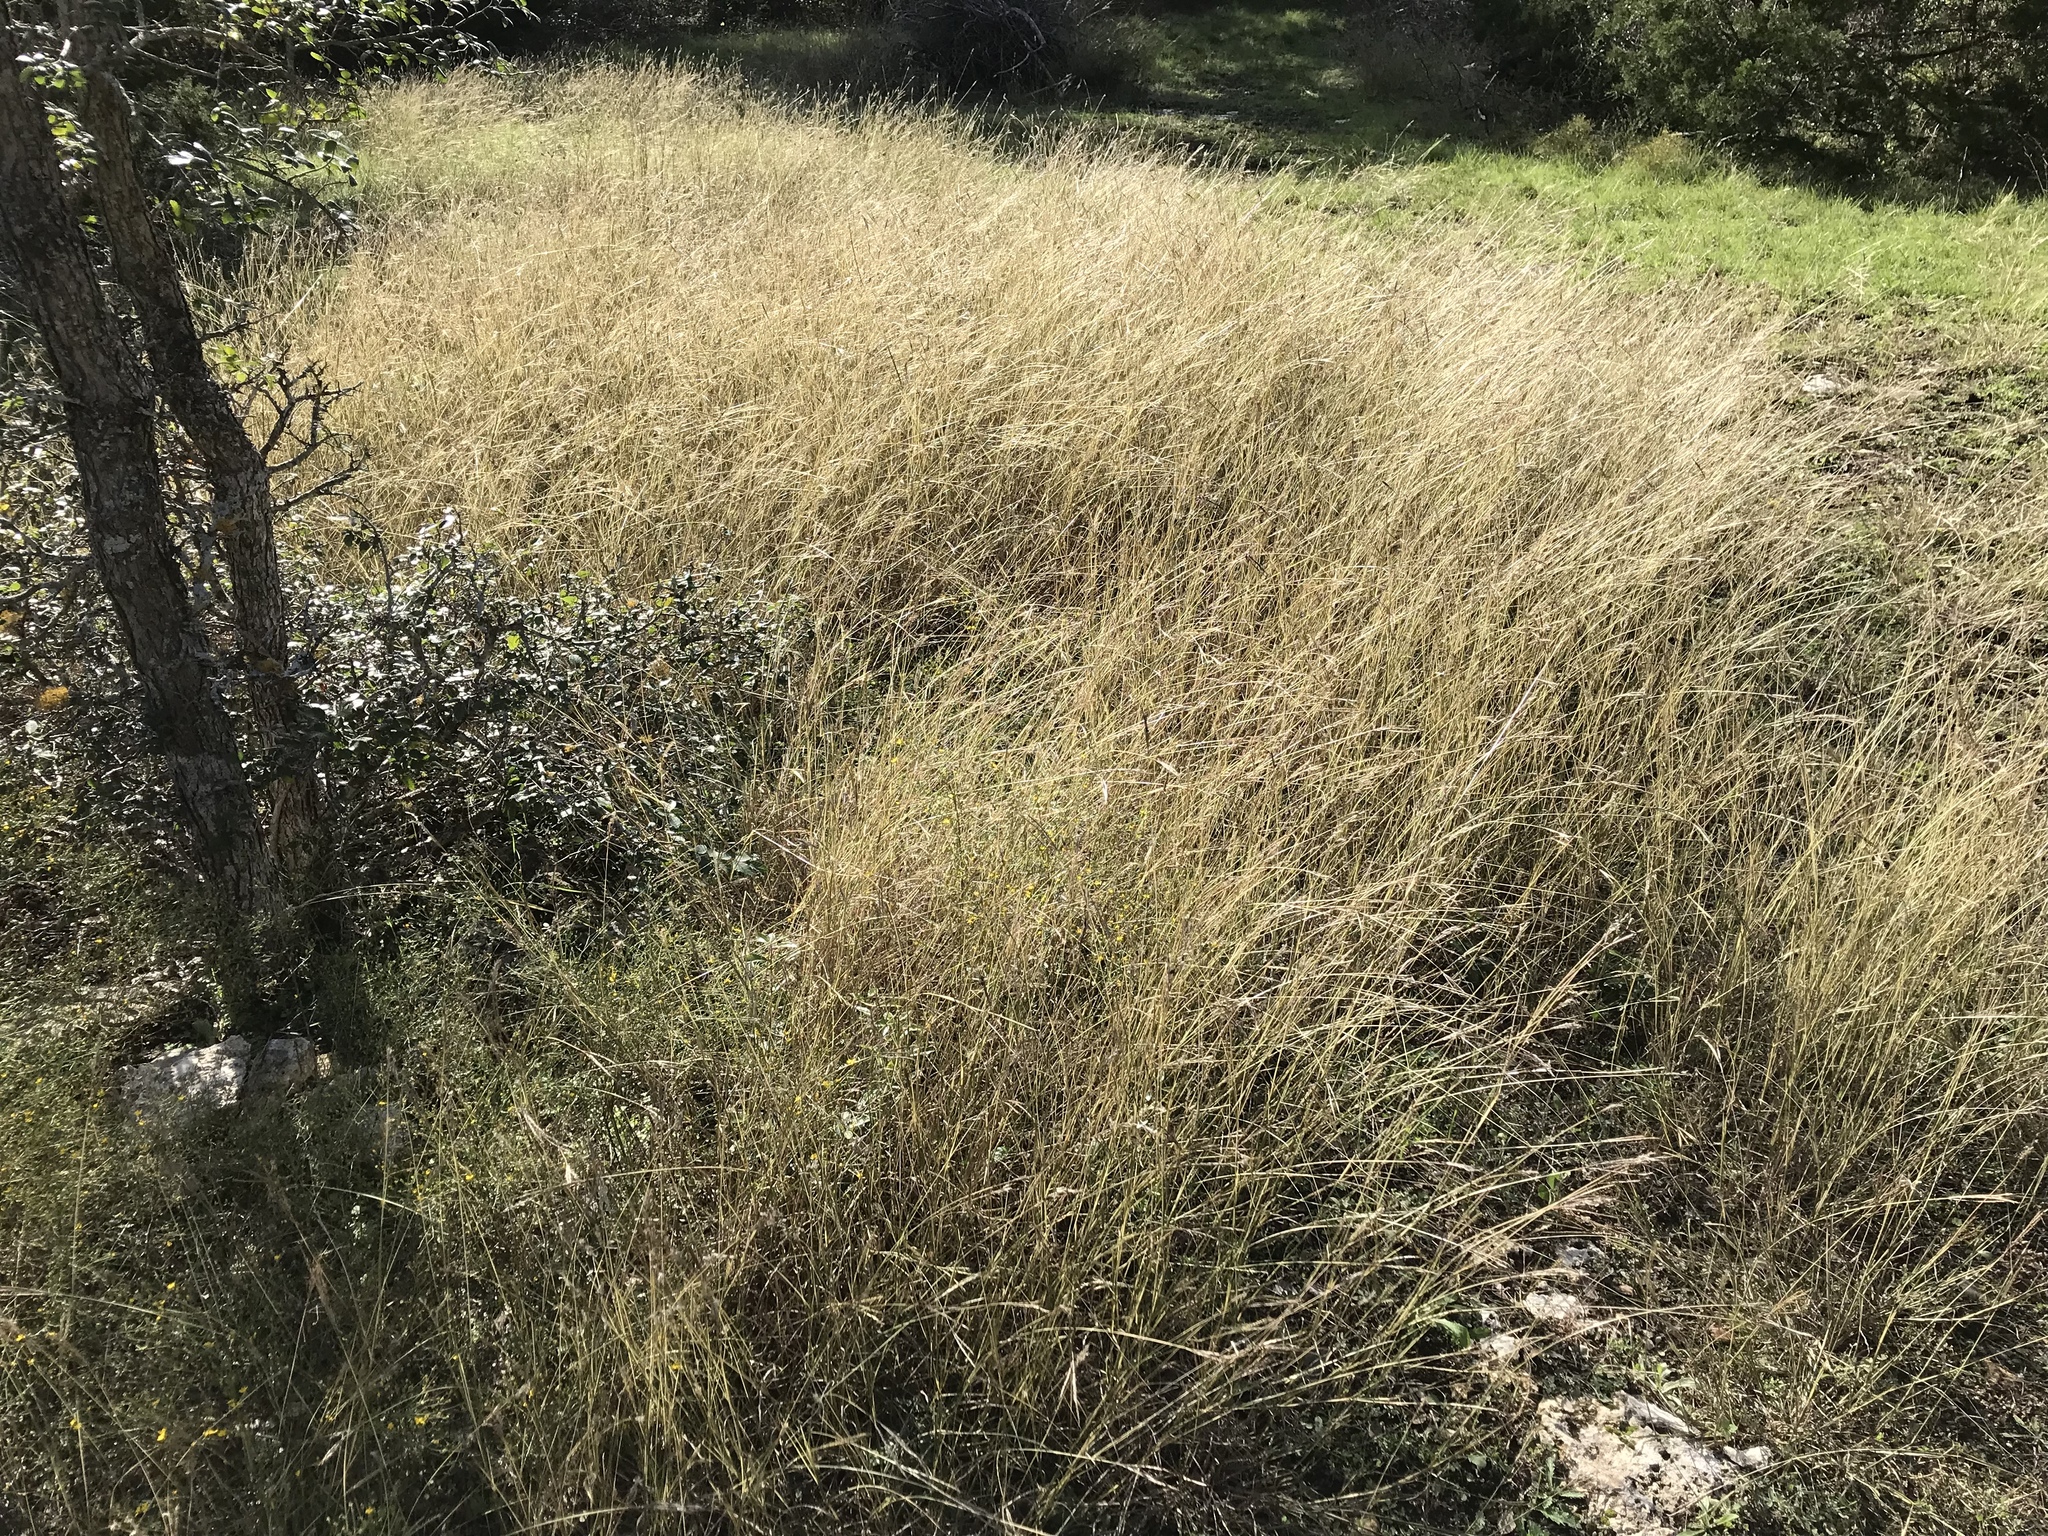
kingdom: Plantae
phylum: Tracheophyta
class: Liliopsida
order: Poales
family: Poaceae
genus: Bothriochloa
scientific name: Bothriochloa ischaemum
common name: Yellow bluestem
